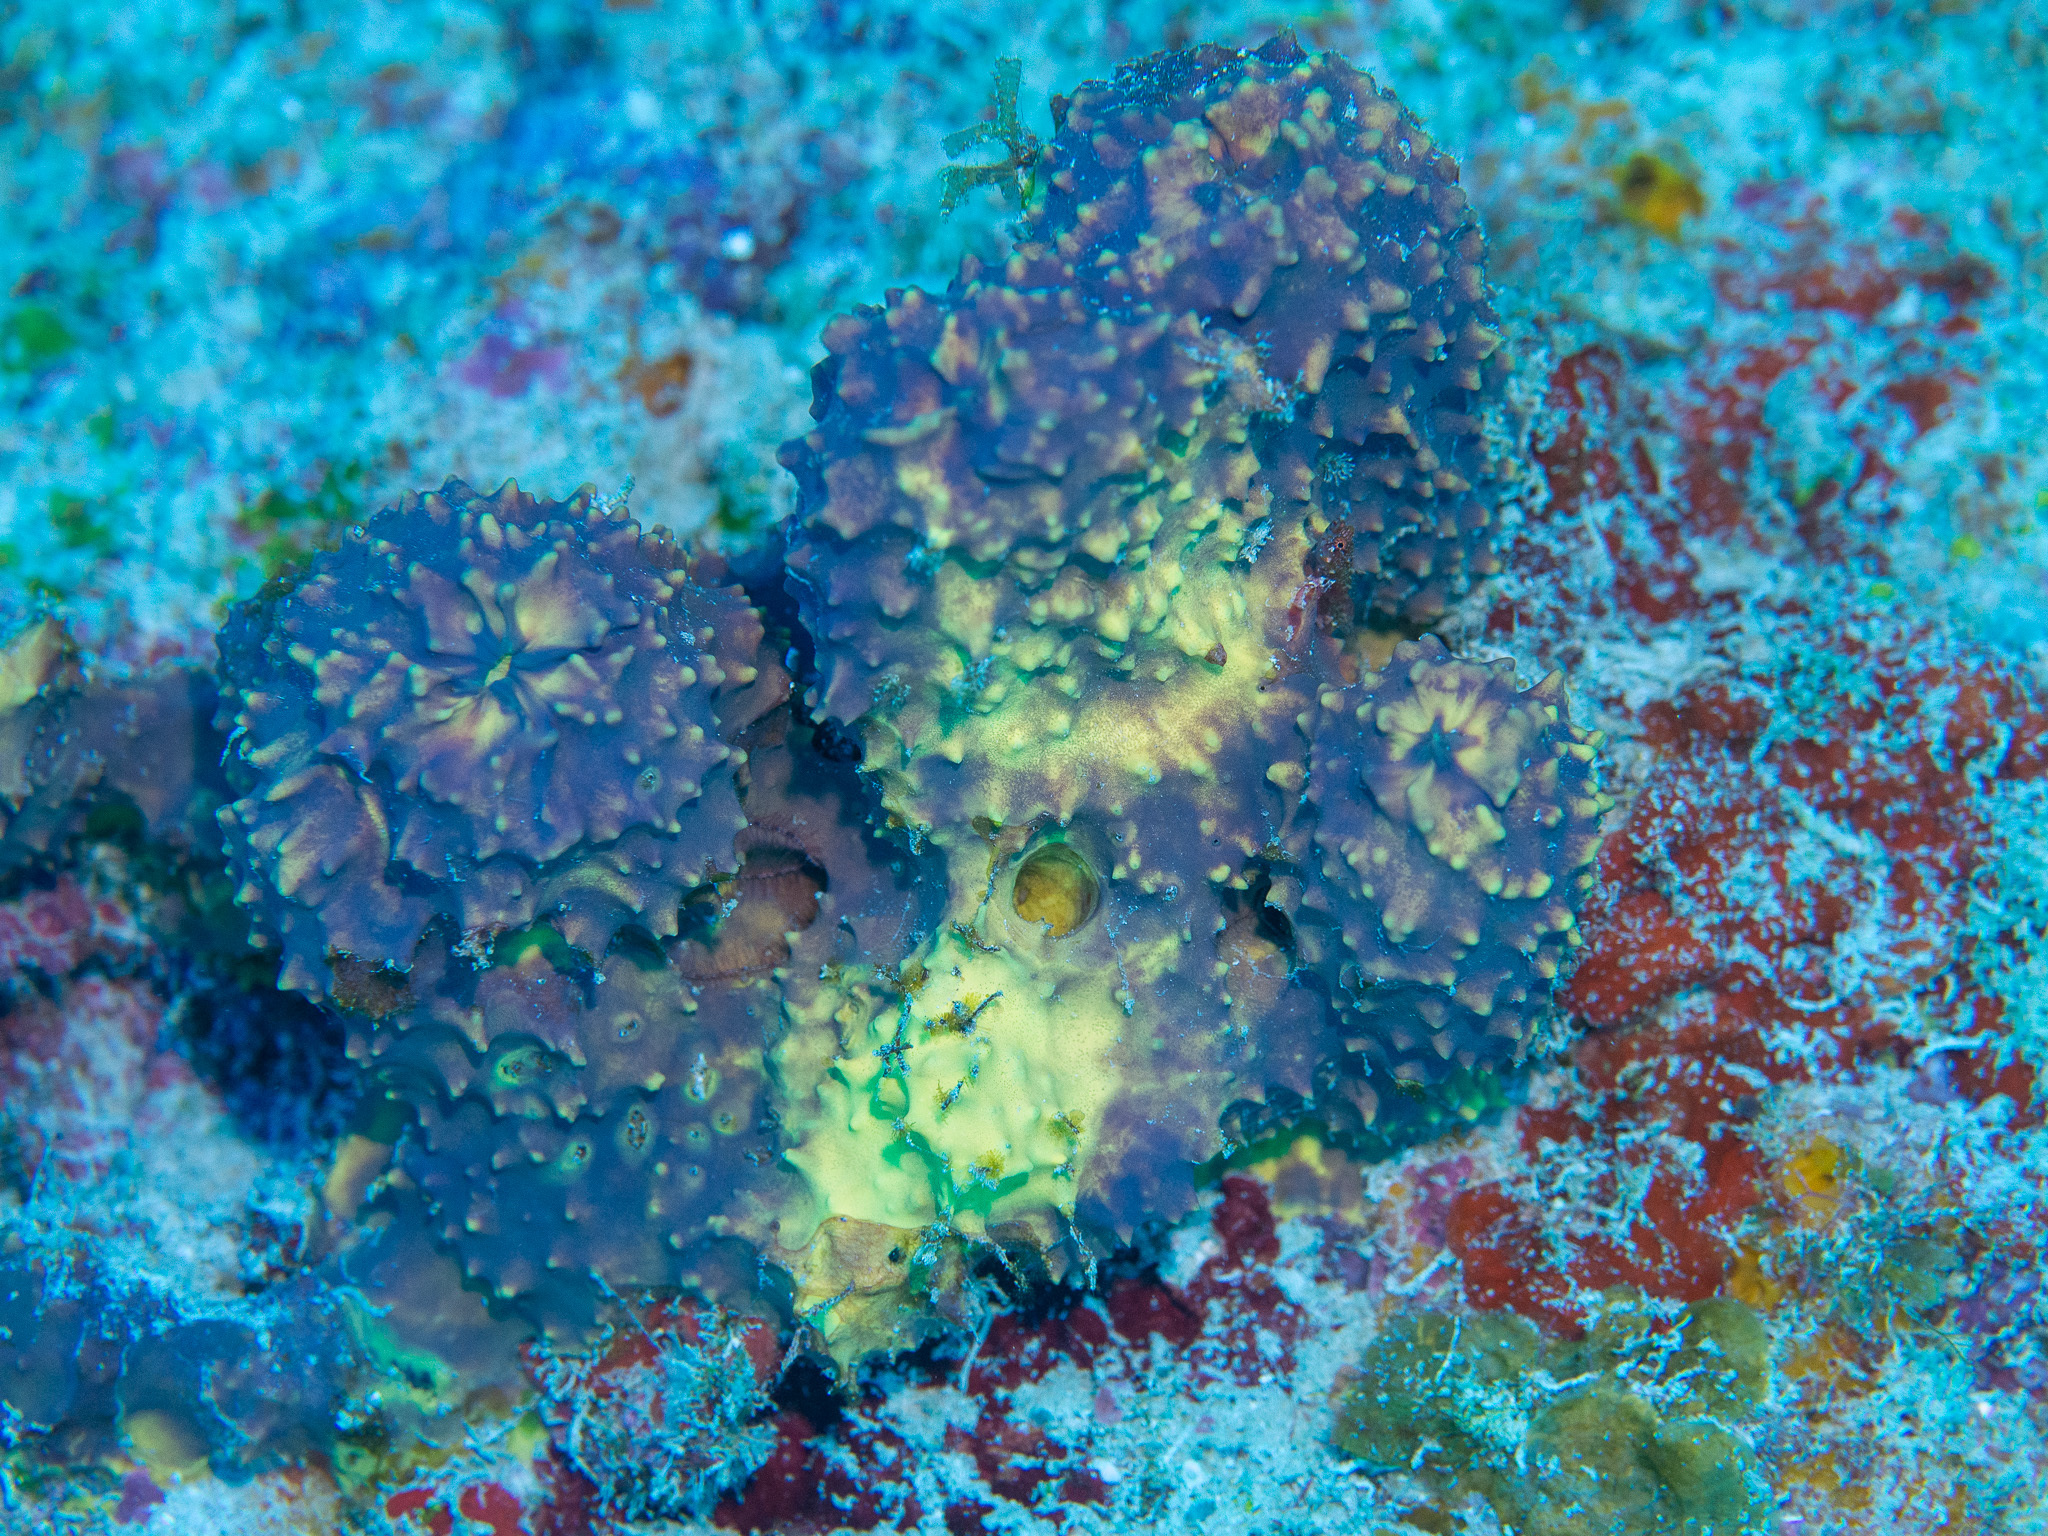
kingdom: Animalia
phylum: Porifera
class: Demospongiae
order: Verongiida
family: Aplysinidae
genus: Aiolochroia
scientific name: Aiolochroia crassa
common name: Branching tube sponge
